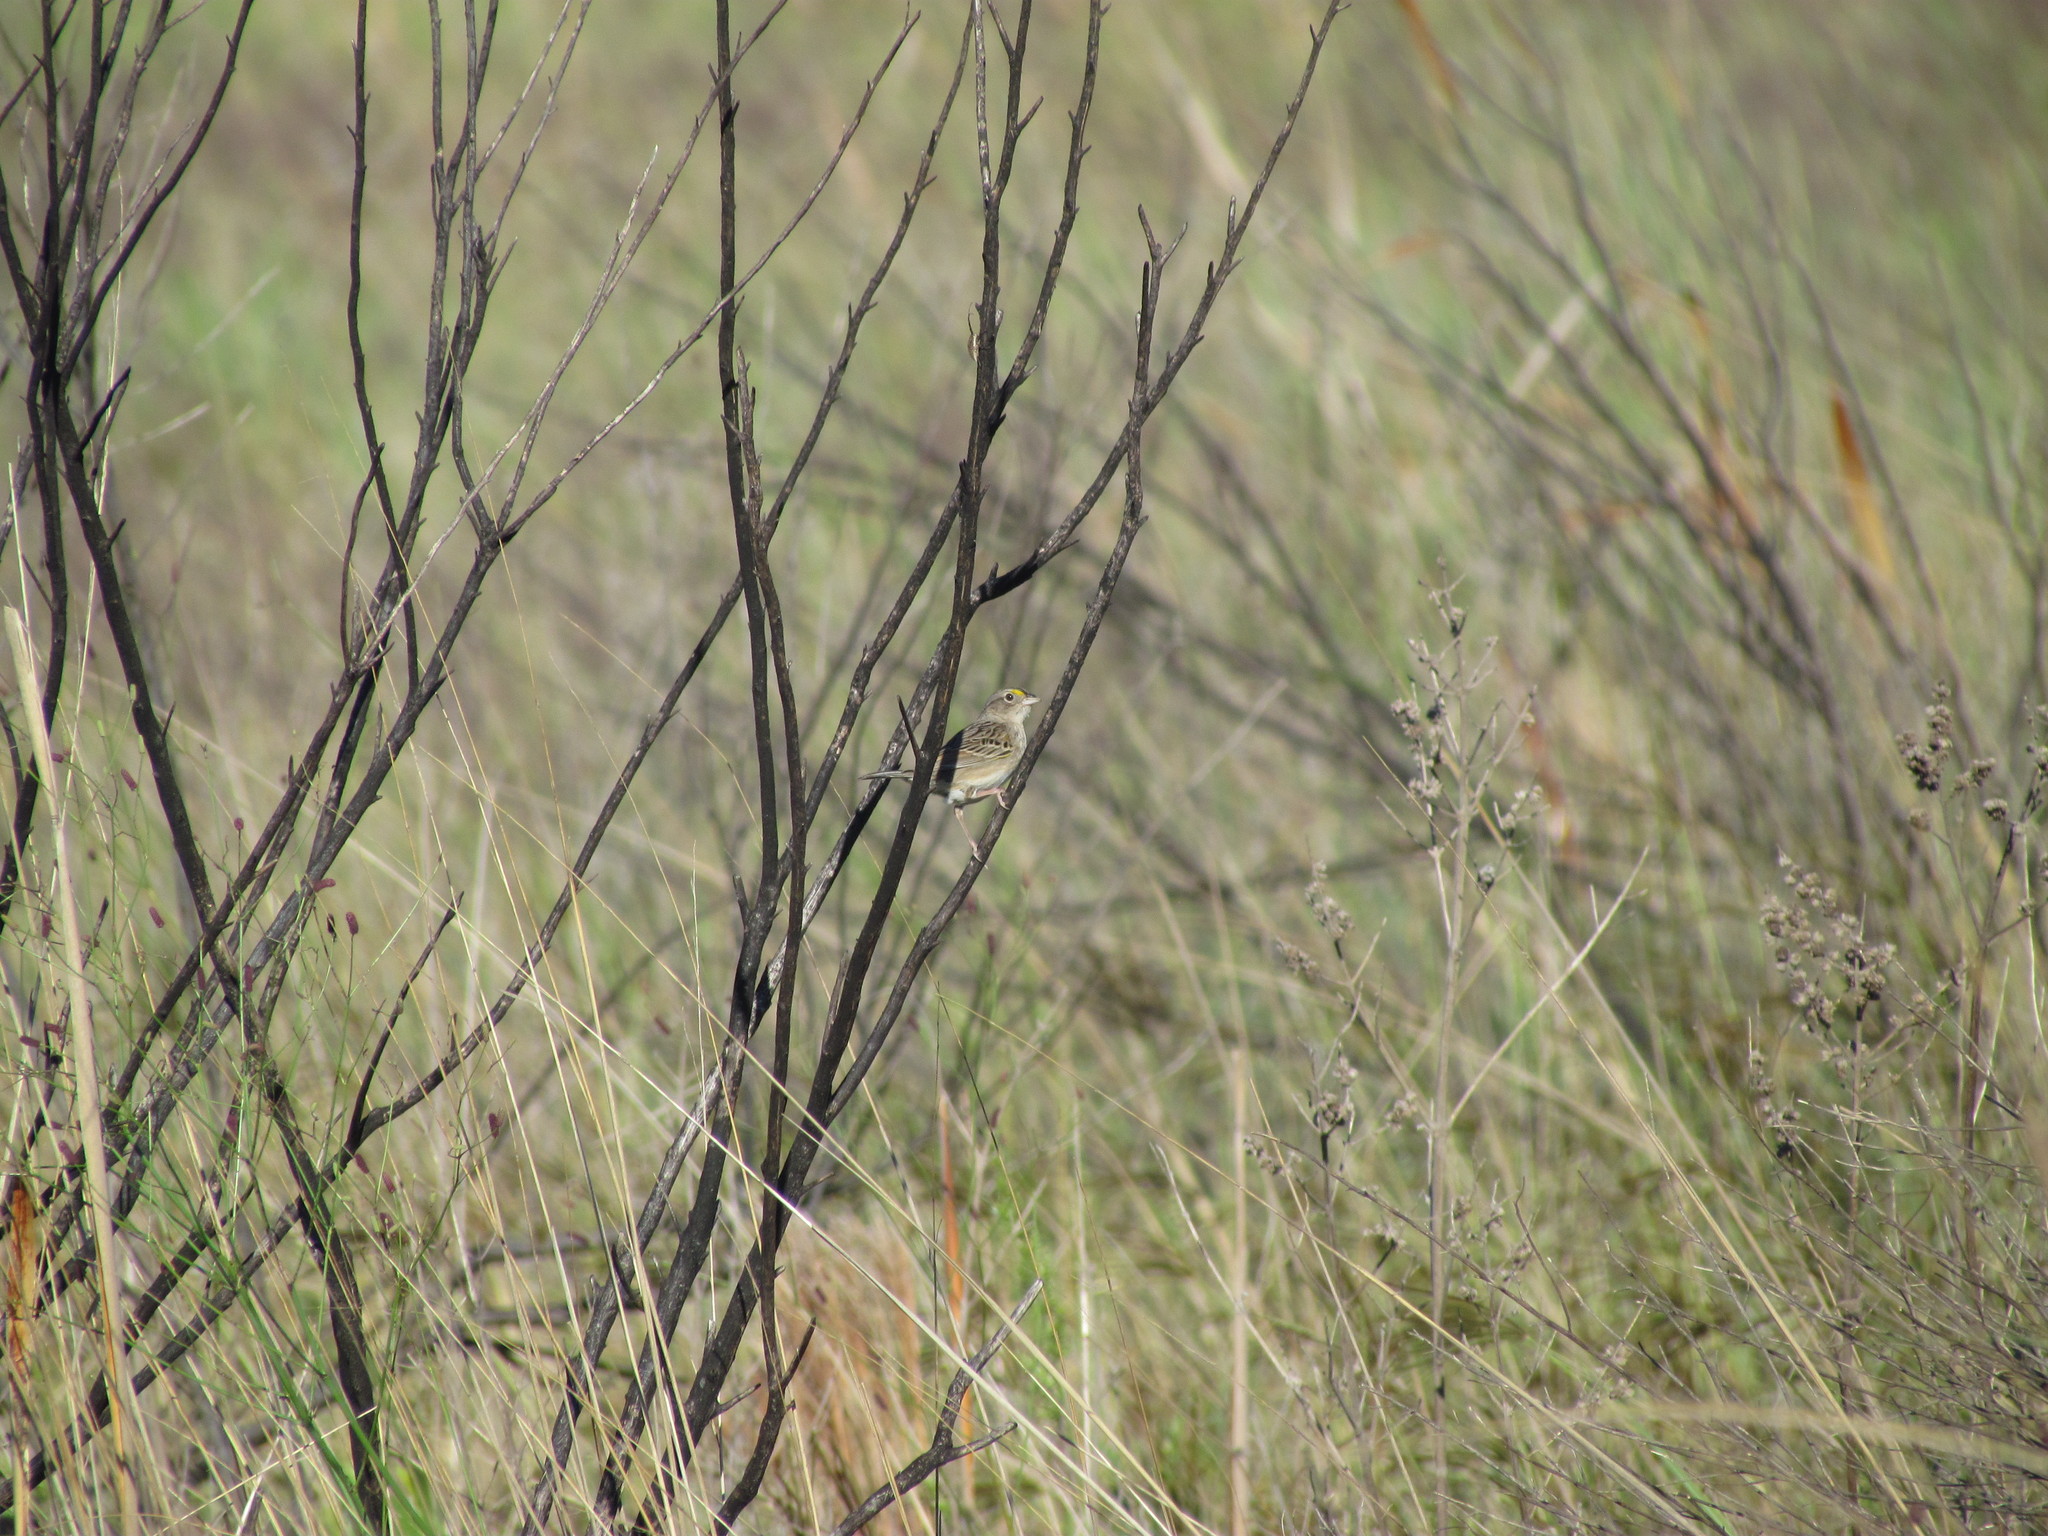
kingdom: Animalia
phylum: Chordata
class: Aves
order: Passeriformes
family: Passerellidae
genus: Ammodramus
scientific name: Ammodramus humeralis
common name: Grassland sparrow
